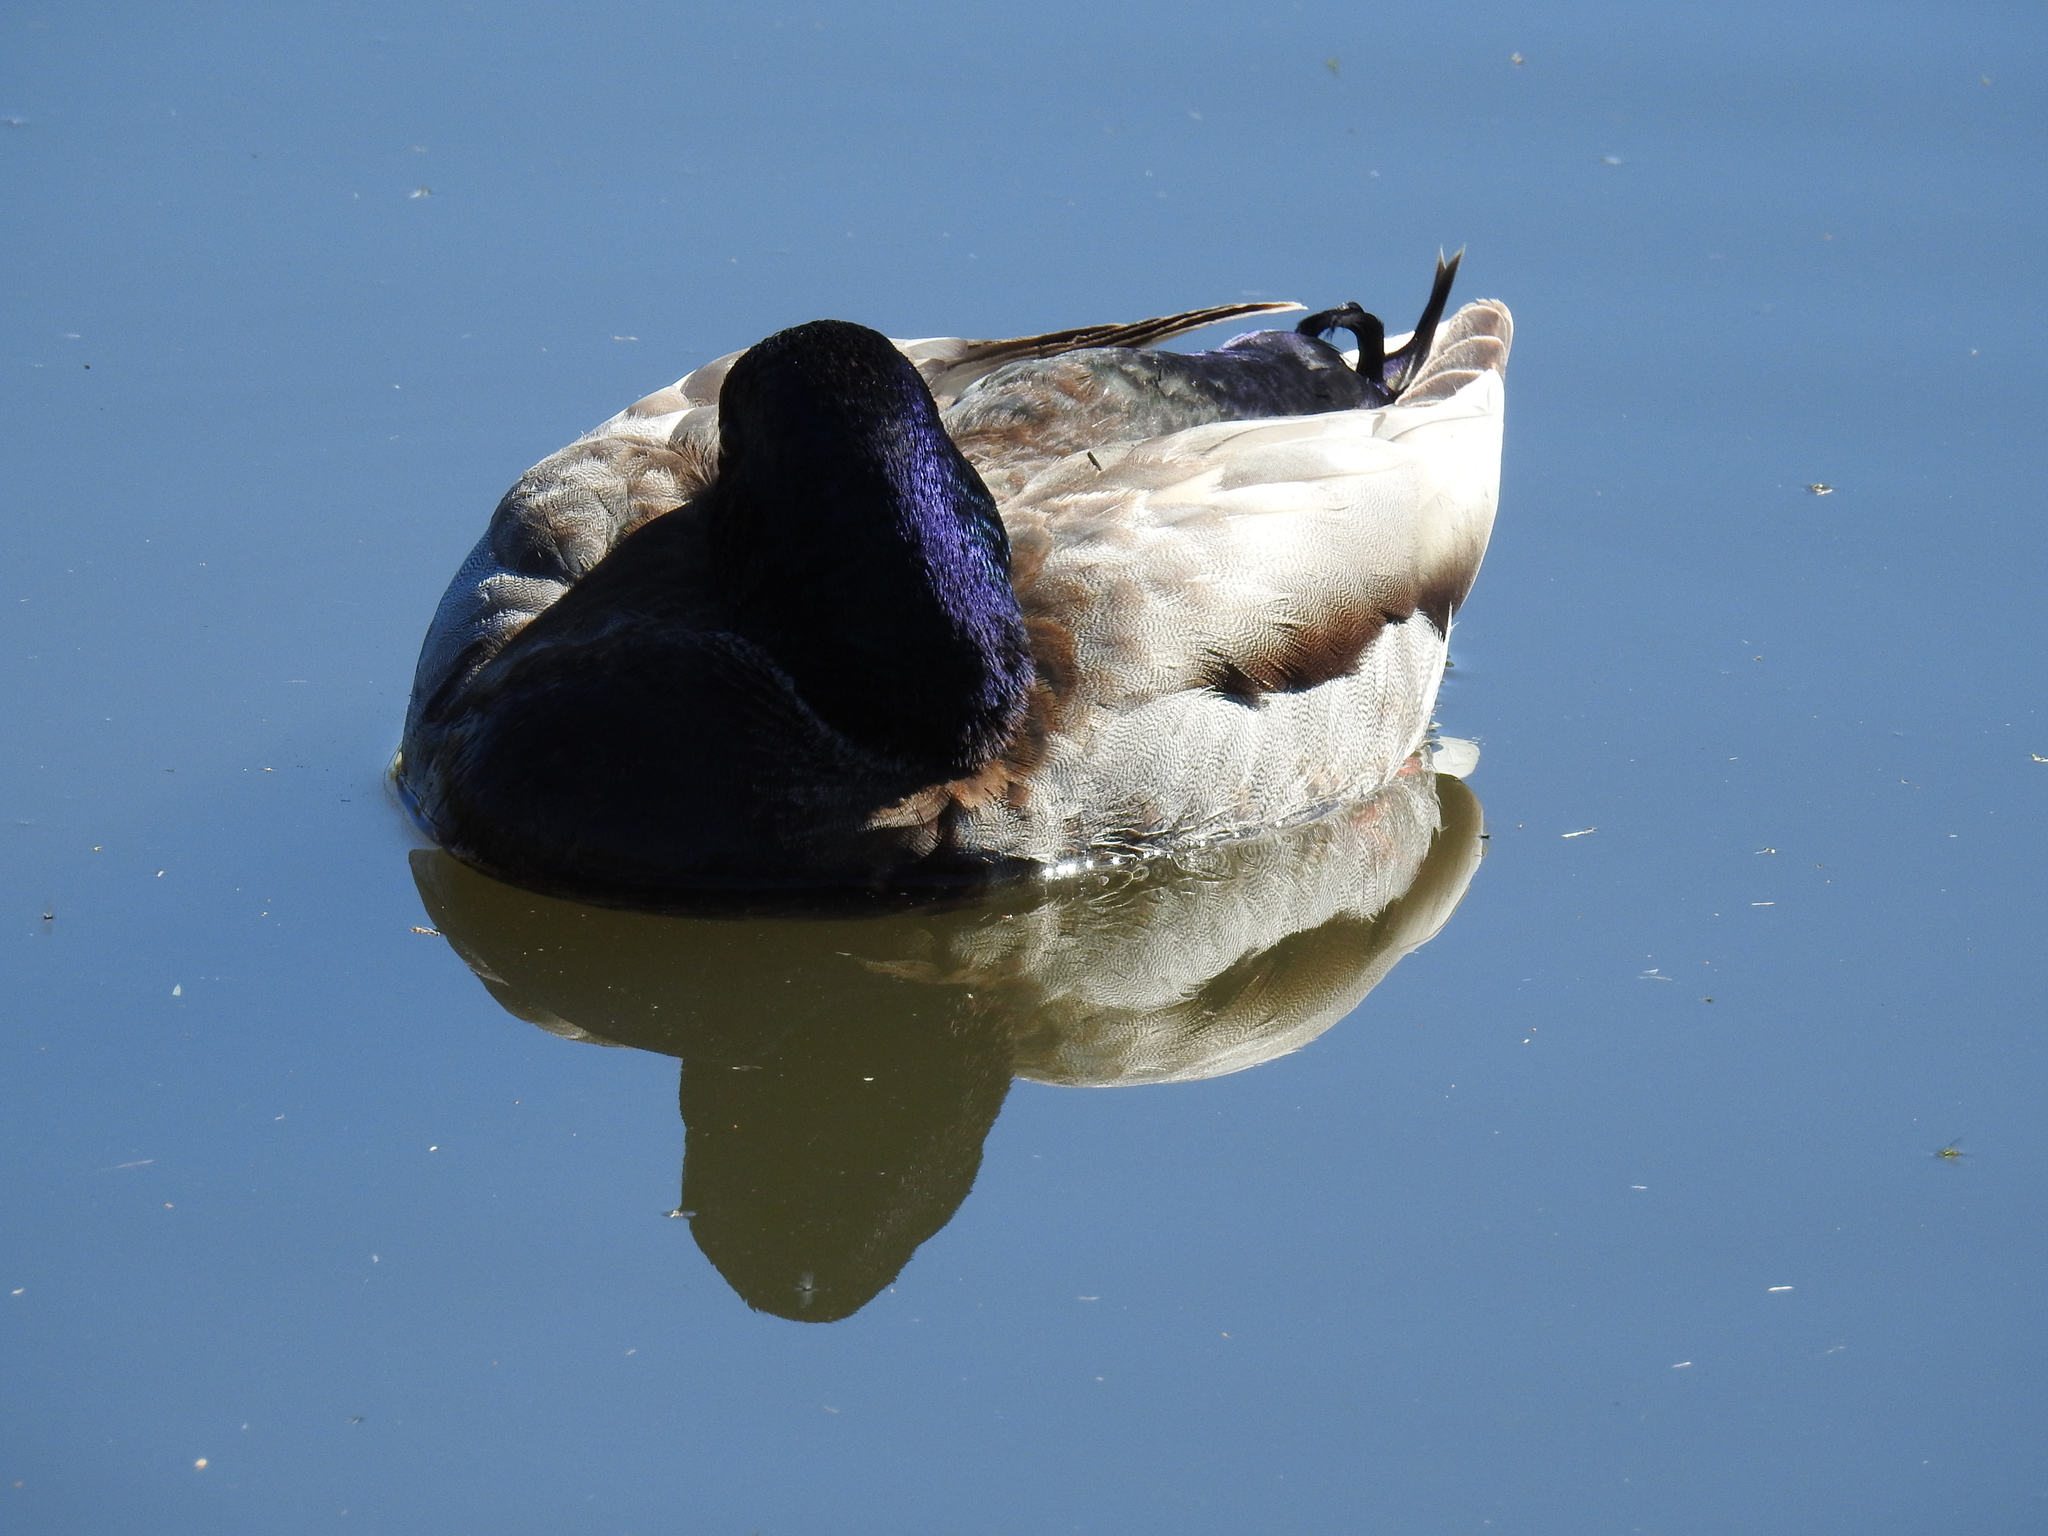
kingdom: Animalia
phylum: Chordata
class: Aves
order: Anseriformes
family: Anatidae
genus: Anas
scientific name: Anas platyrhynchos
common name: Mallard
